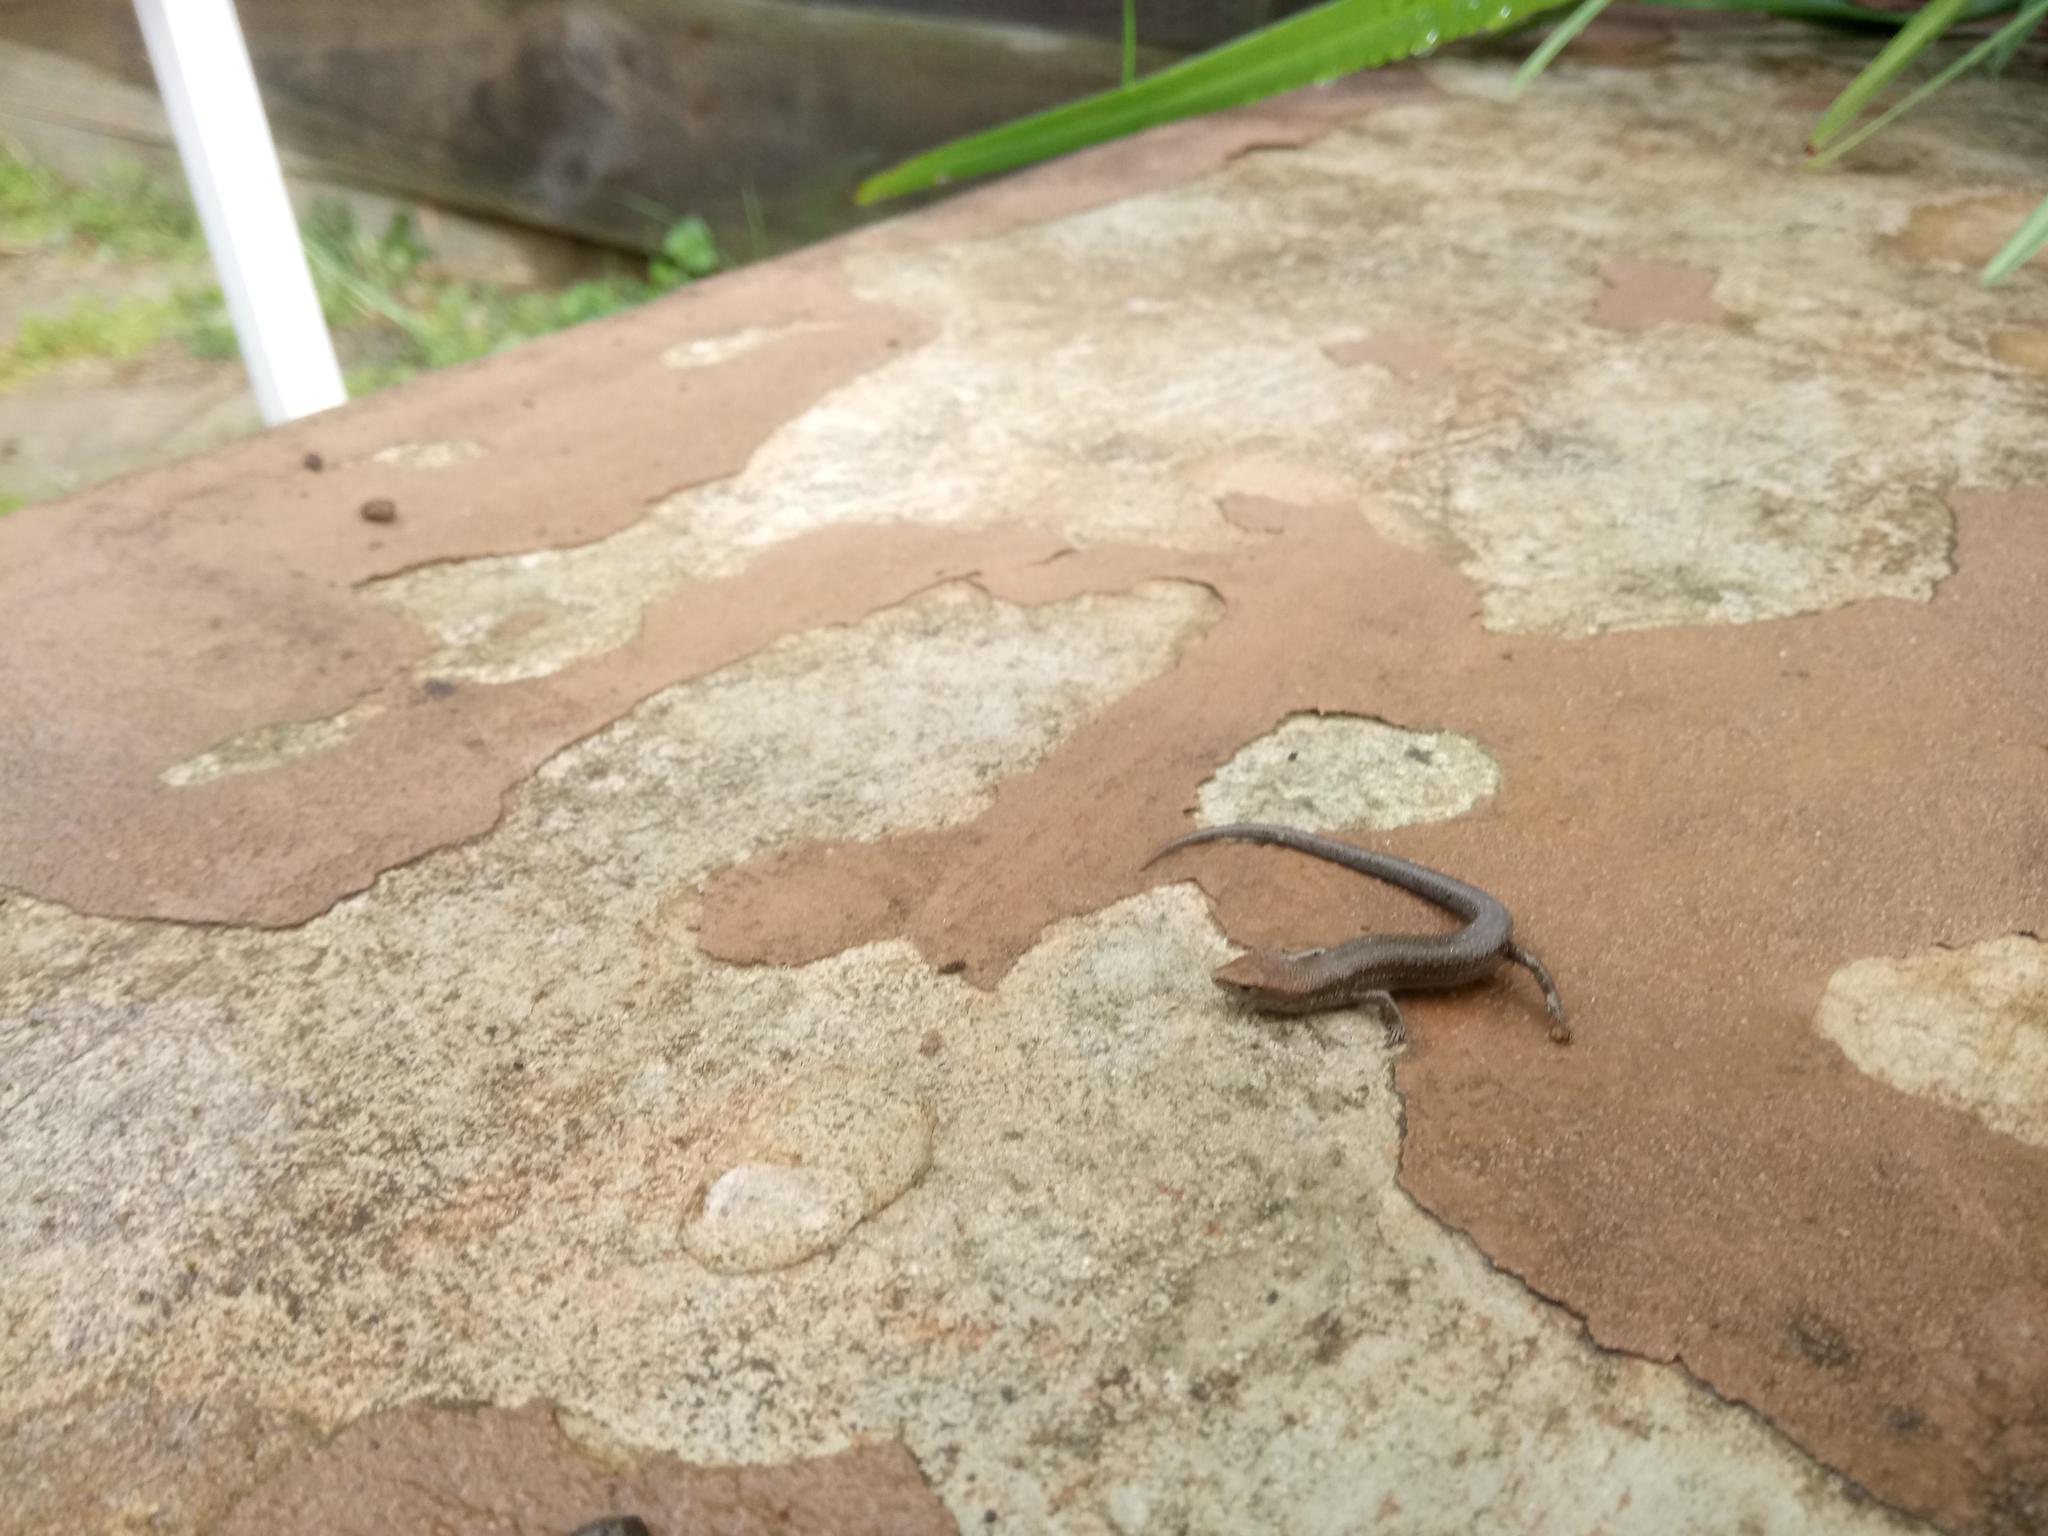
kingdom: Animalia
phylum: Chordata
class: Squamata
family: Scincidae
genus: Lampropholis
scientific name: Lampropholis guichenoti
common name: Garden skink
